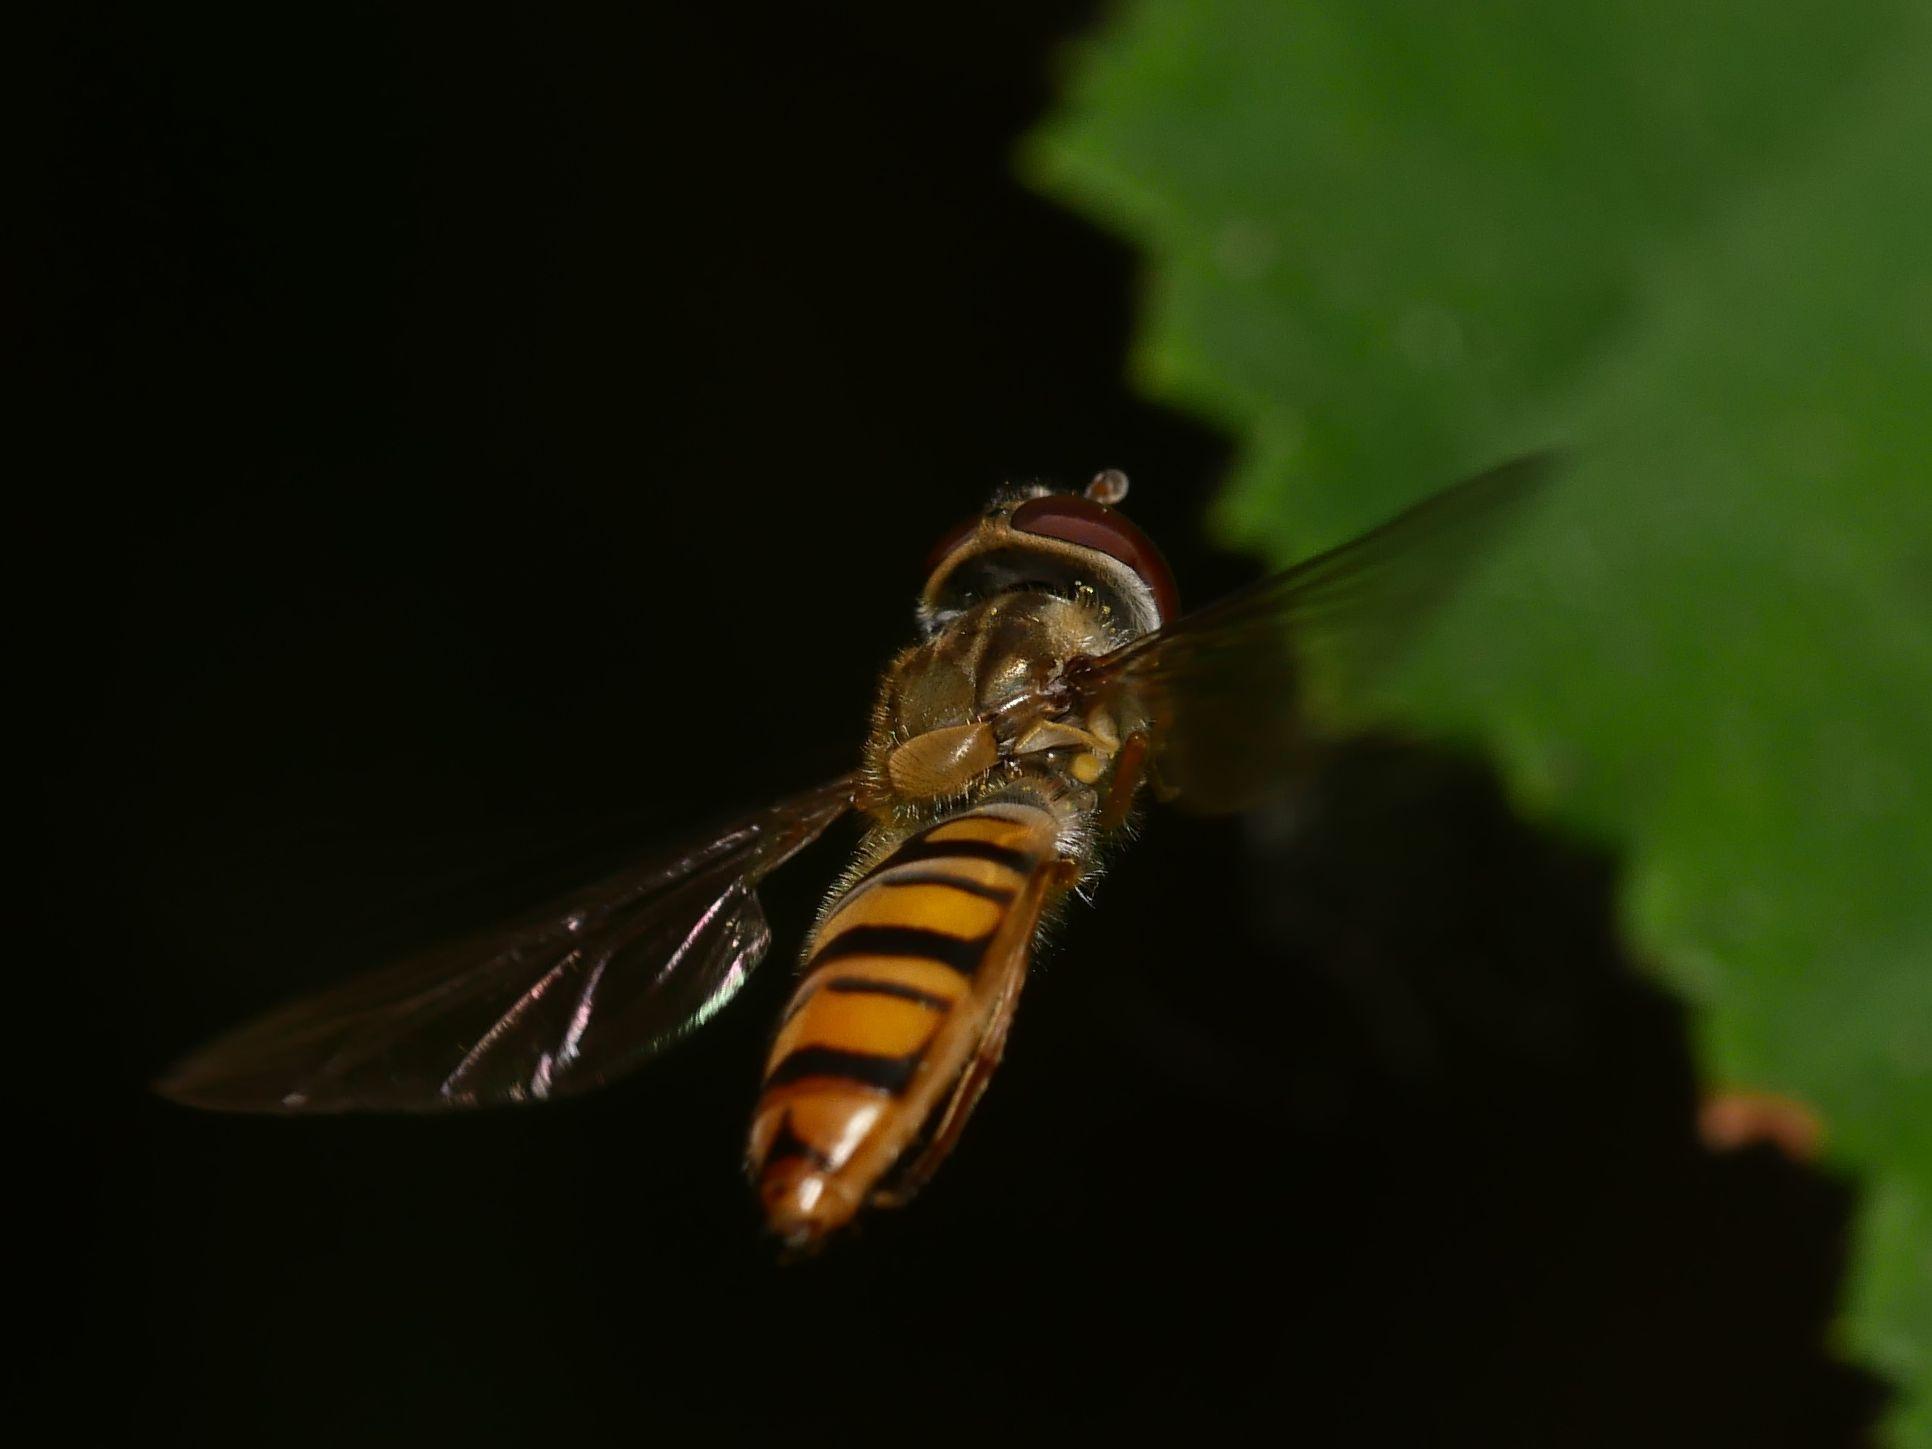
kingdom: Animalia
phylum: Arthropoda
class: Insecta
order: Diptera
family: Syrphidae
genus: Episyrphus
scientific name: Episyrphus balteatus
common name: Marmalade hoverfly
